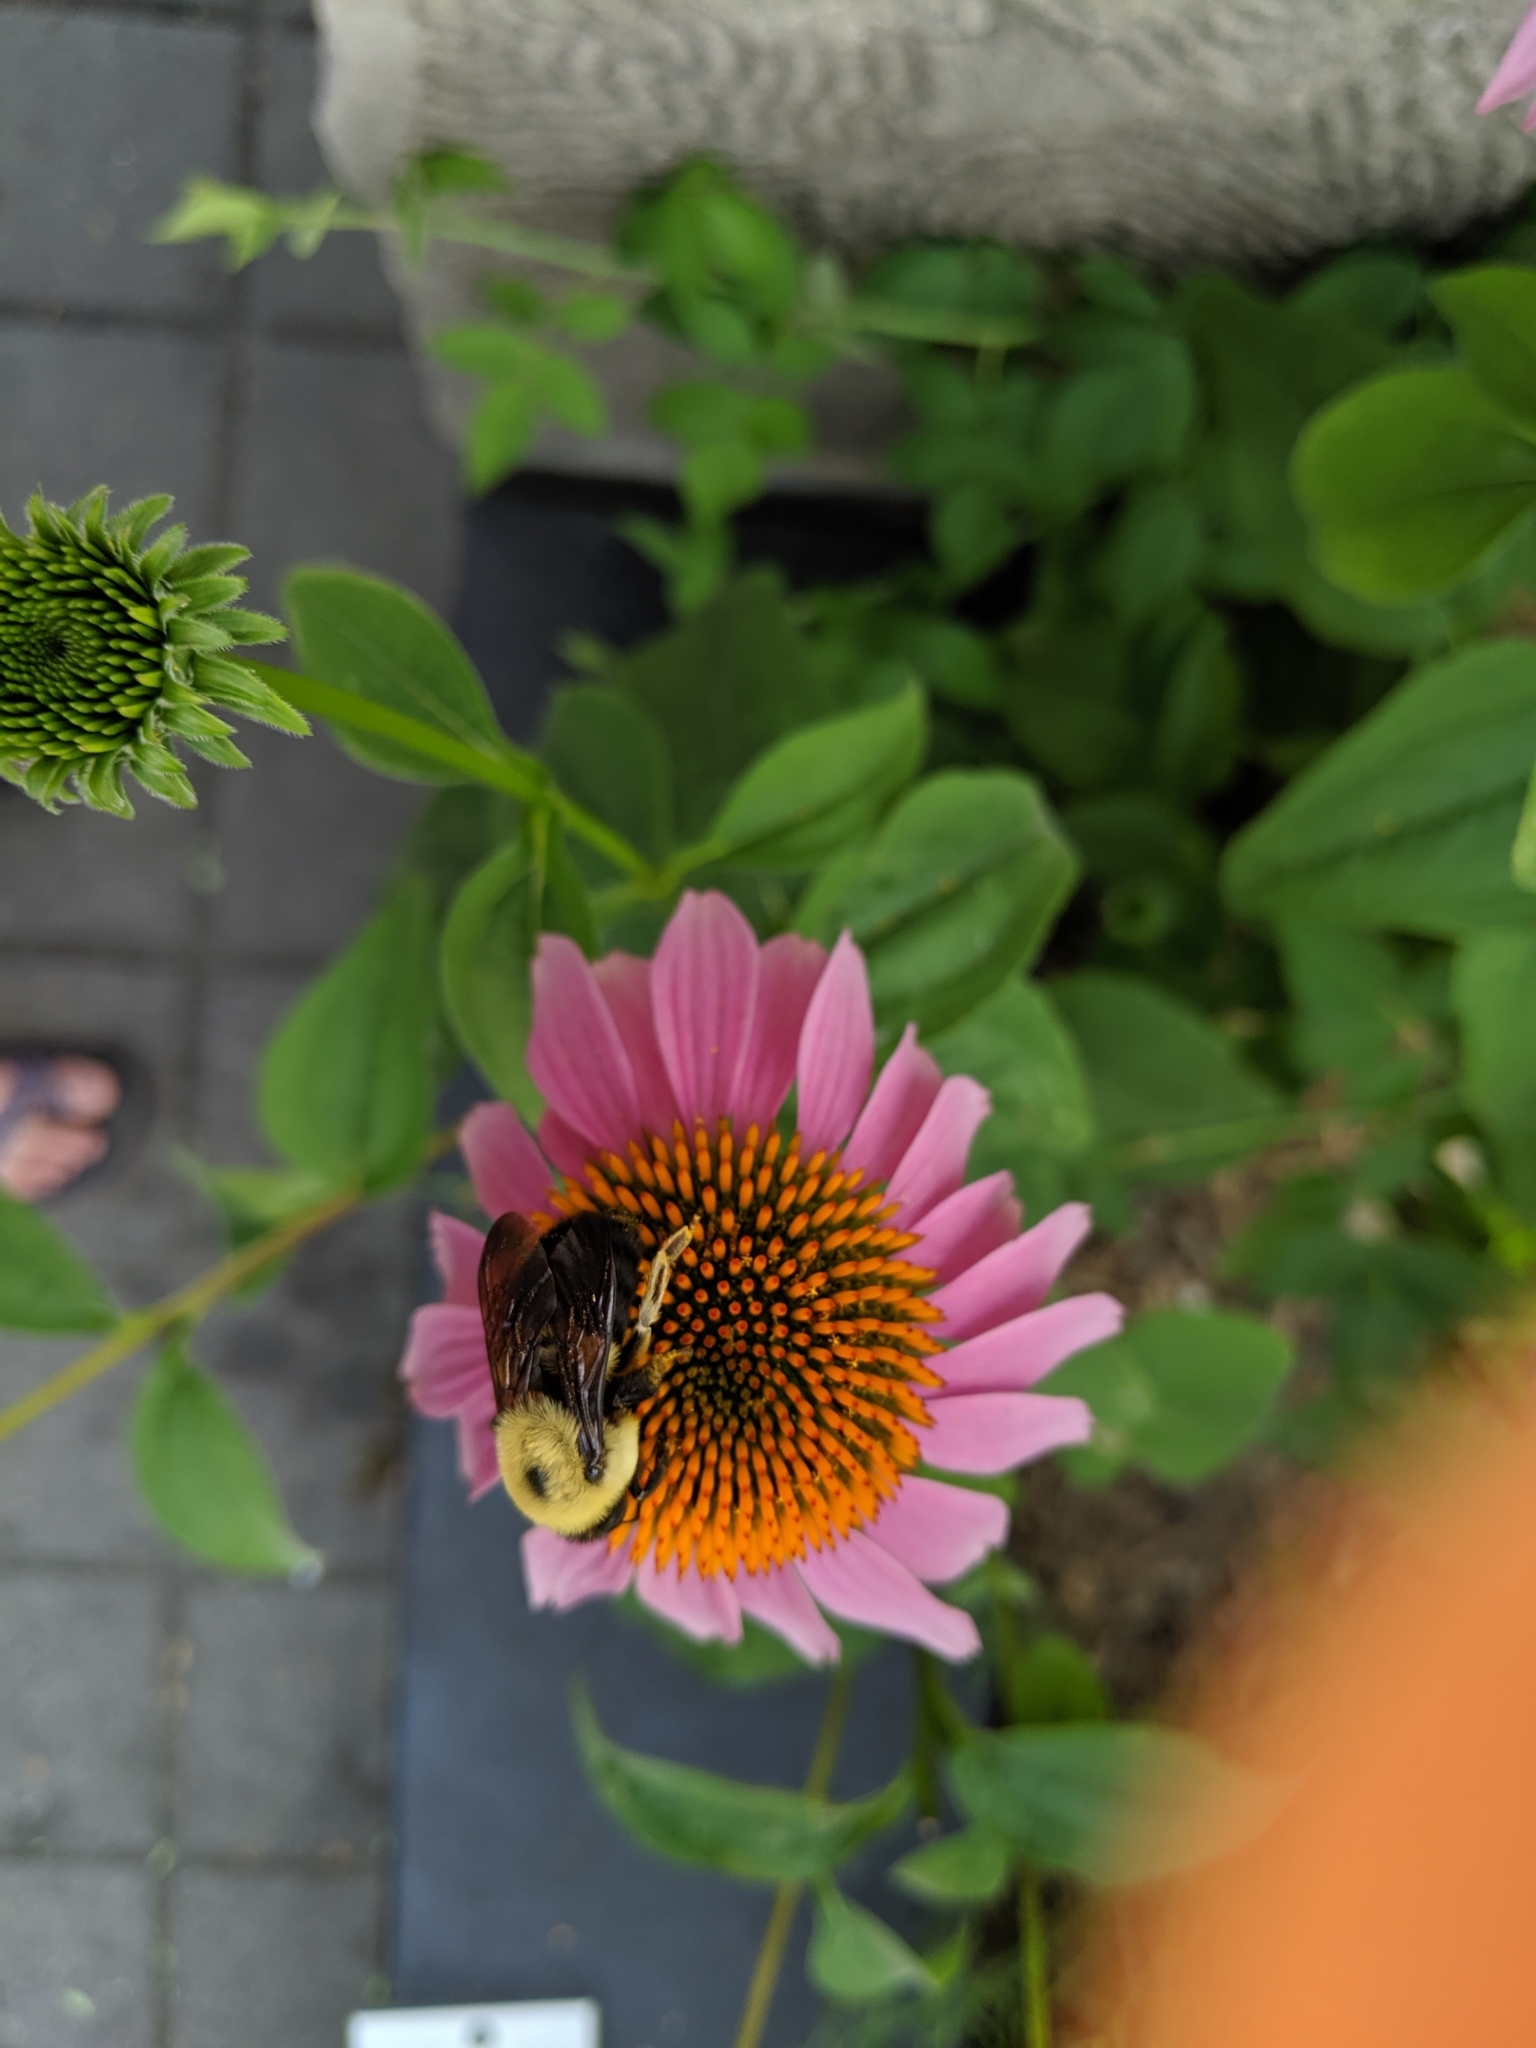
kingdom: Animalia
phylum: Arthropoda
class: Insecta
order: Hymenoptera
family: Apidae
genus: Bombus
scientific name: Bombus griseocollis
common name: Brown-belted bumble bee
